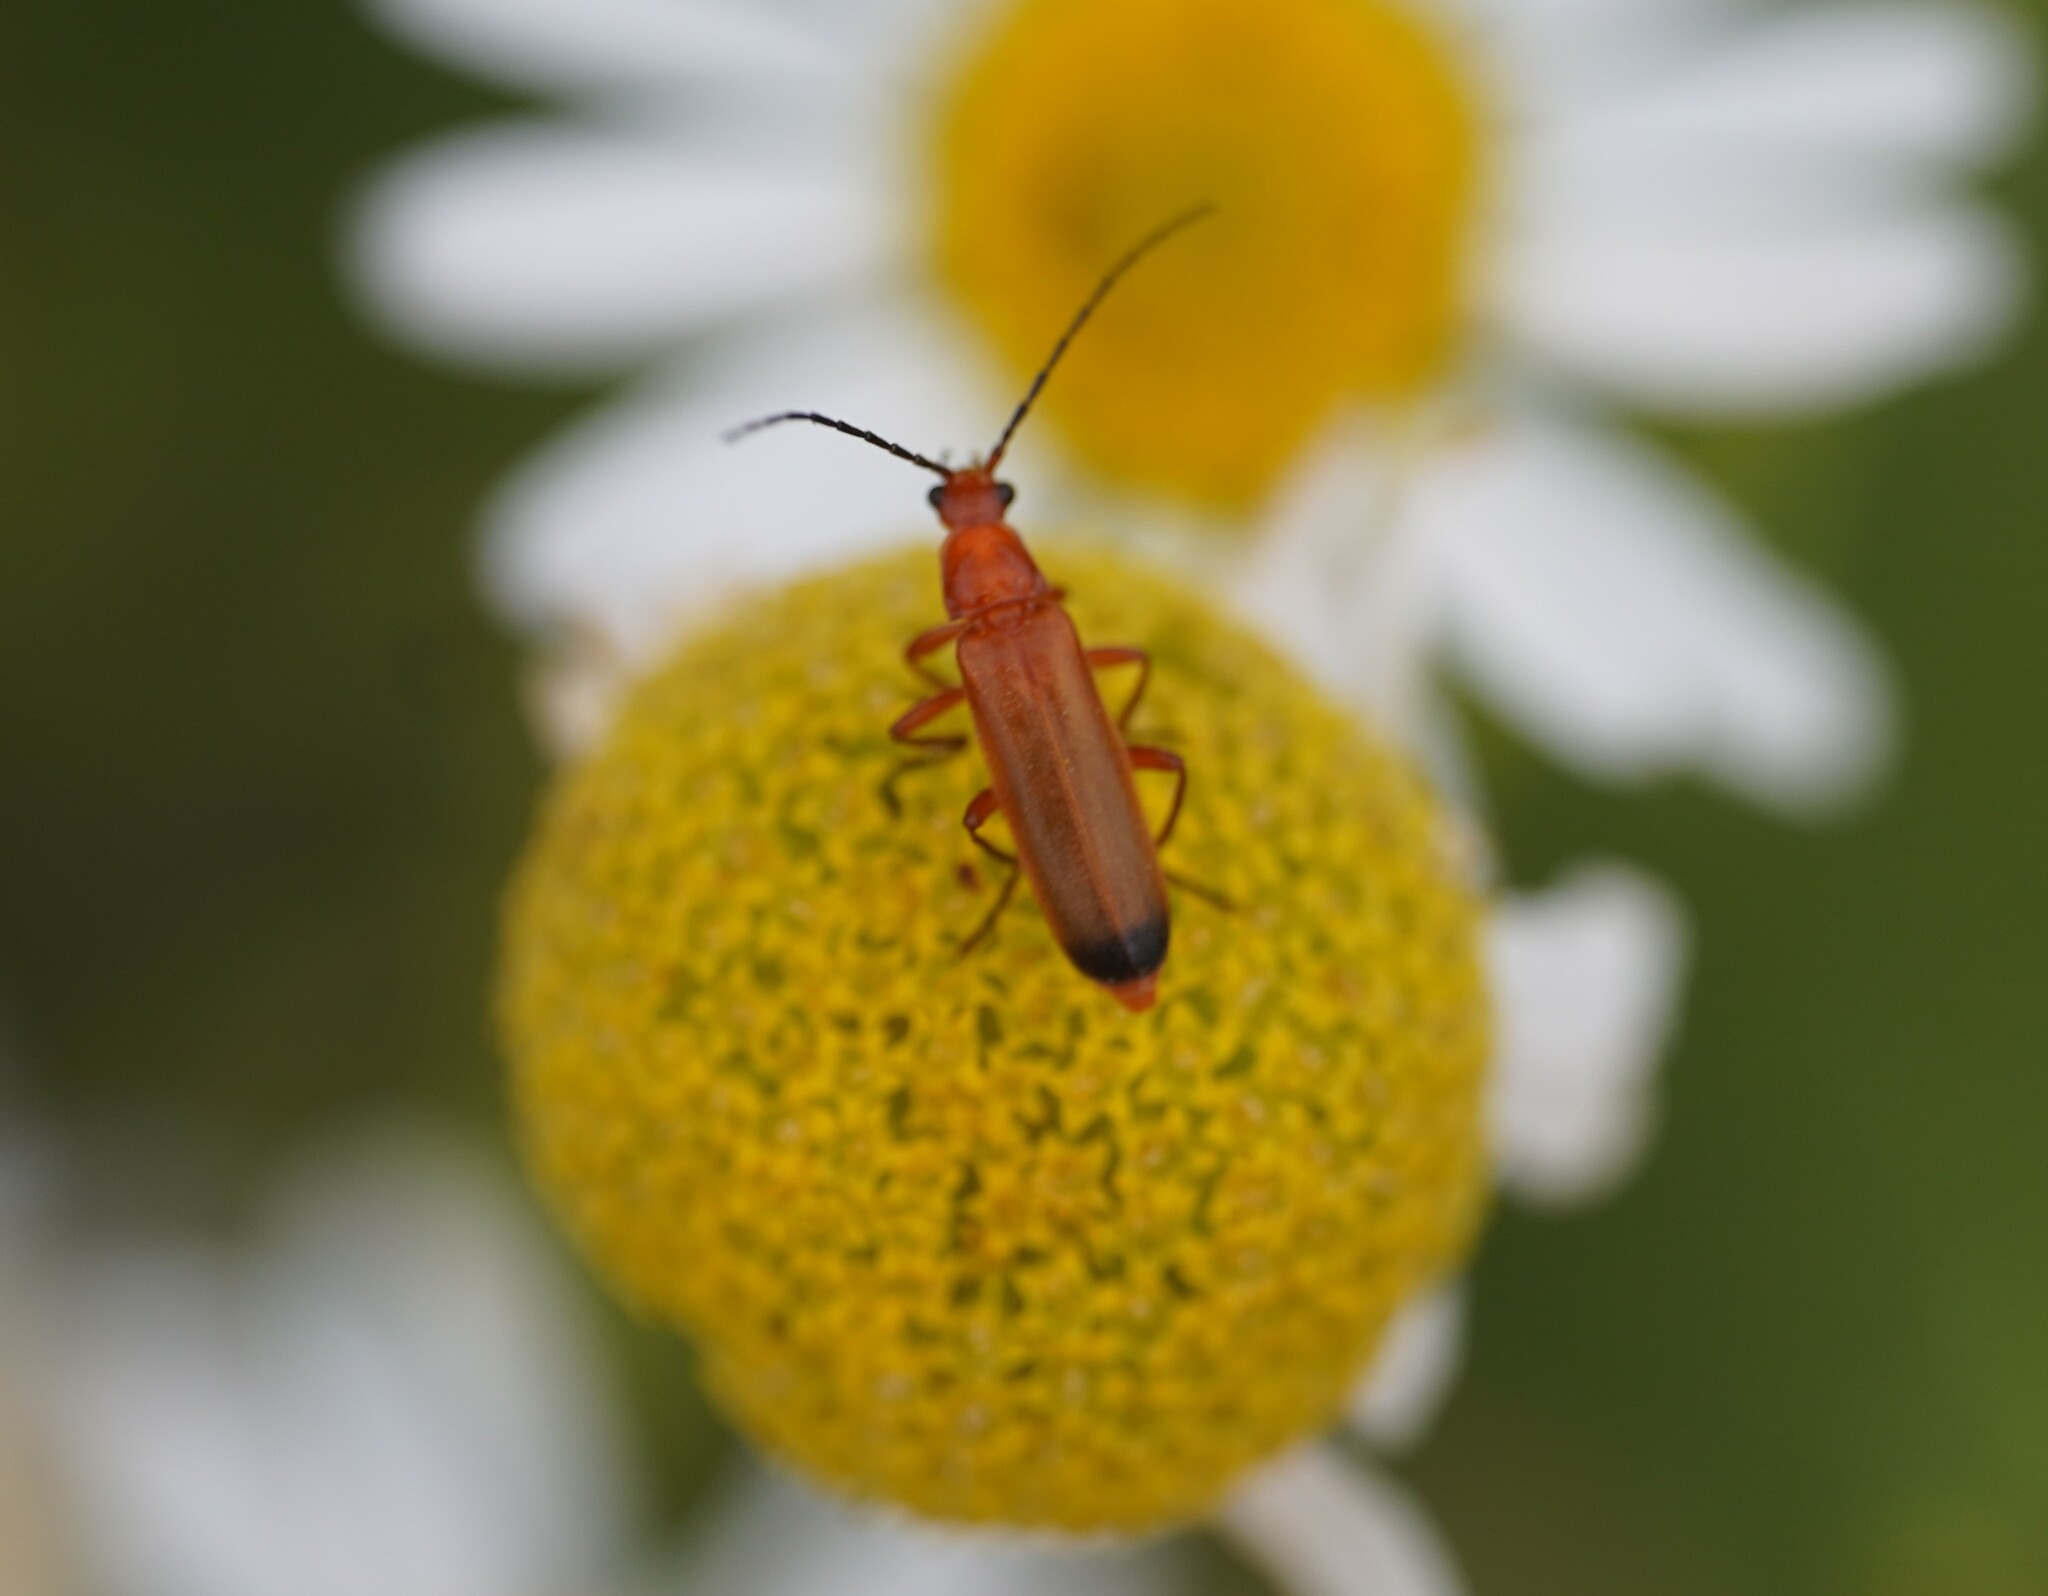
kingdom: Animalia
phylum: Arthropoda
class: Insecta
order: Coleoptera
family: Cantharidae
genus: Rhagonycha
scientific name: Rhagonycha fulva
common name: Common red soldier beetle
